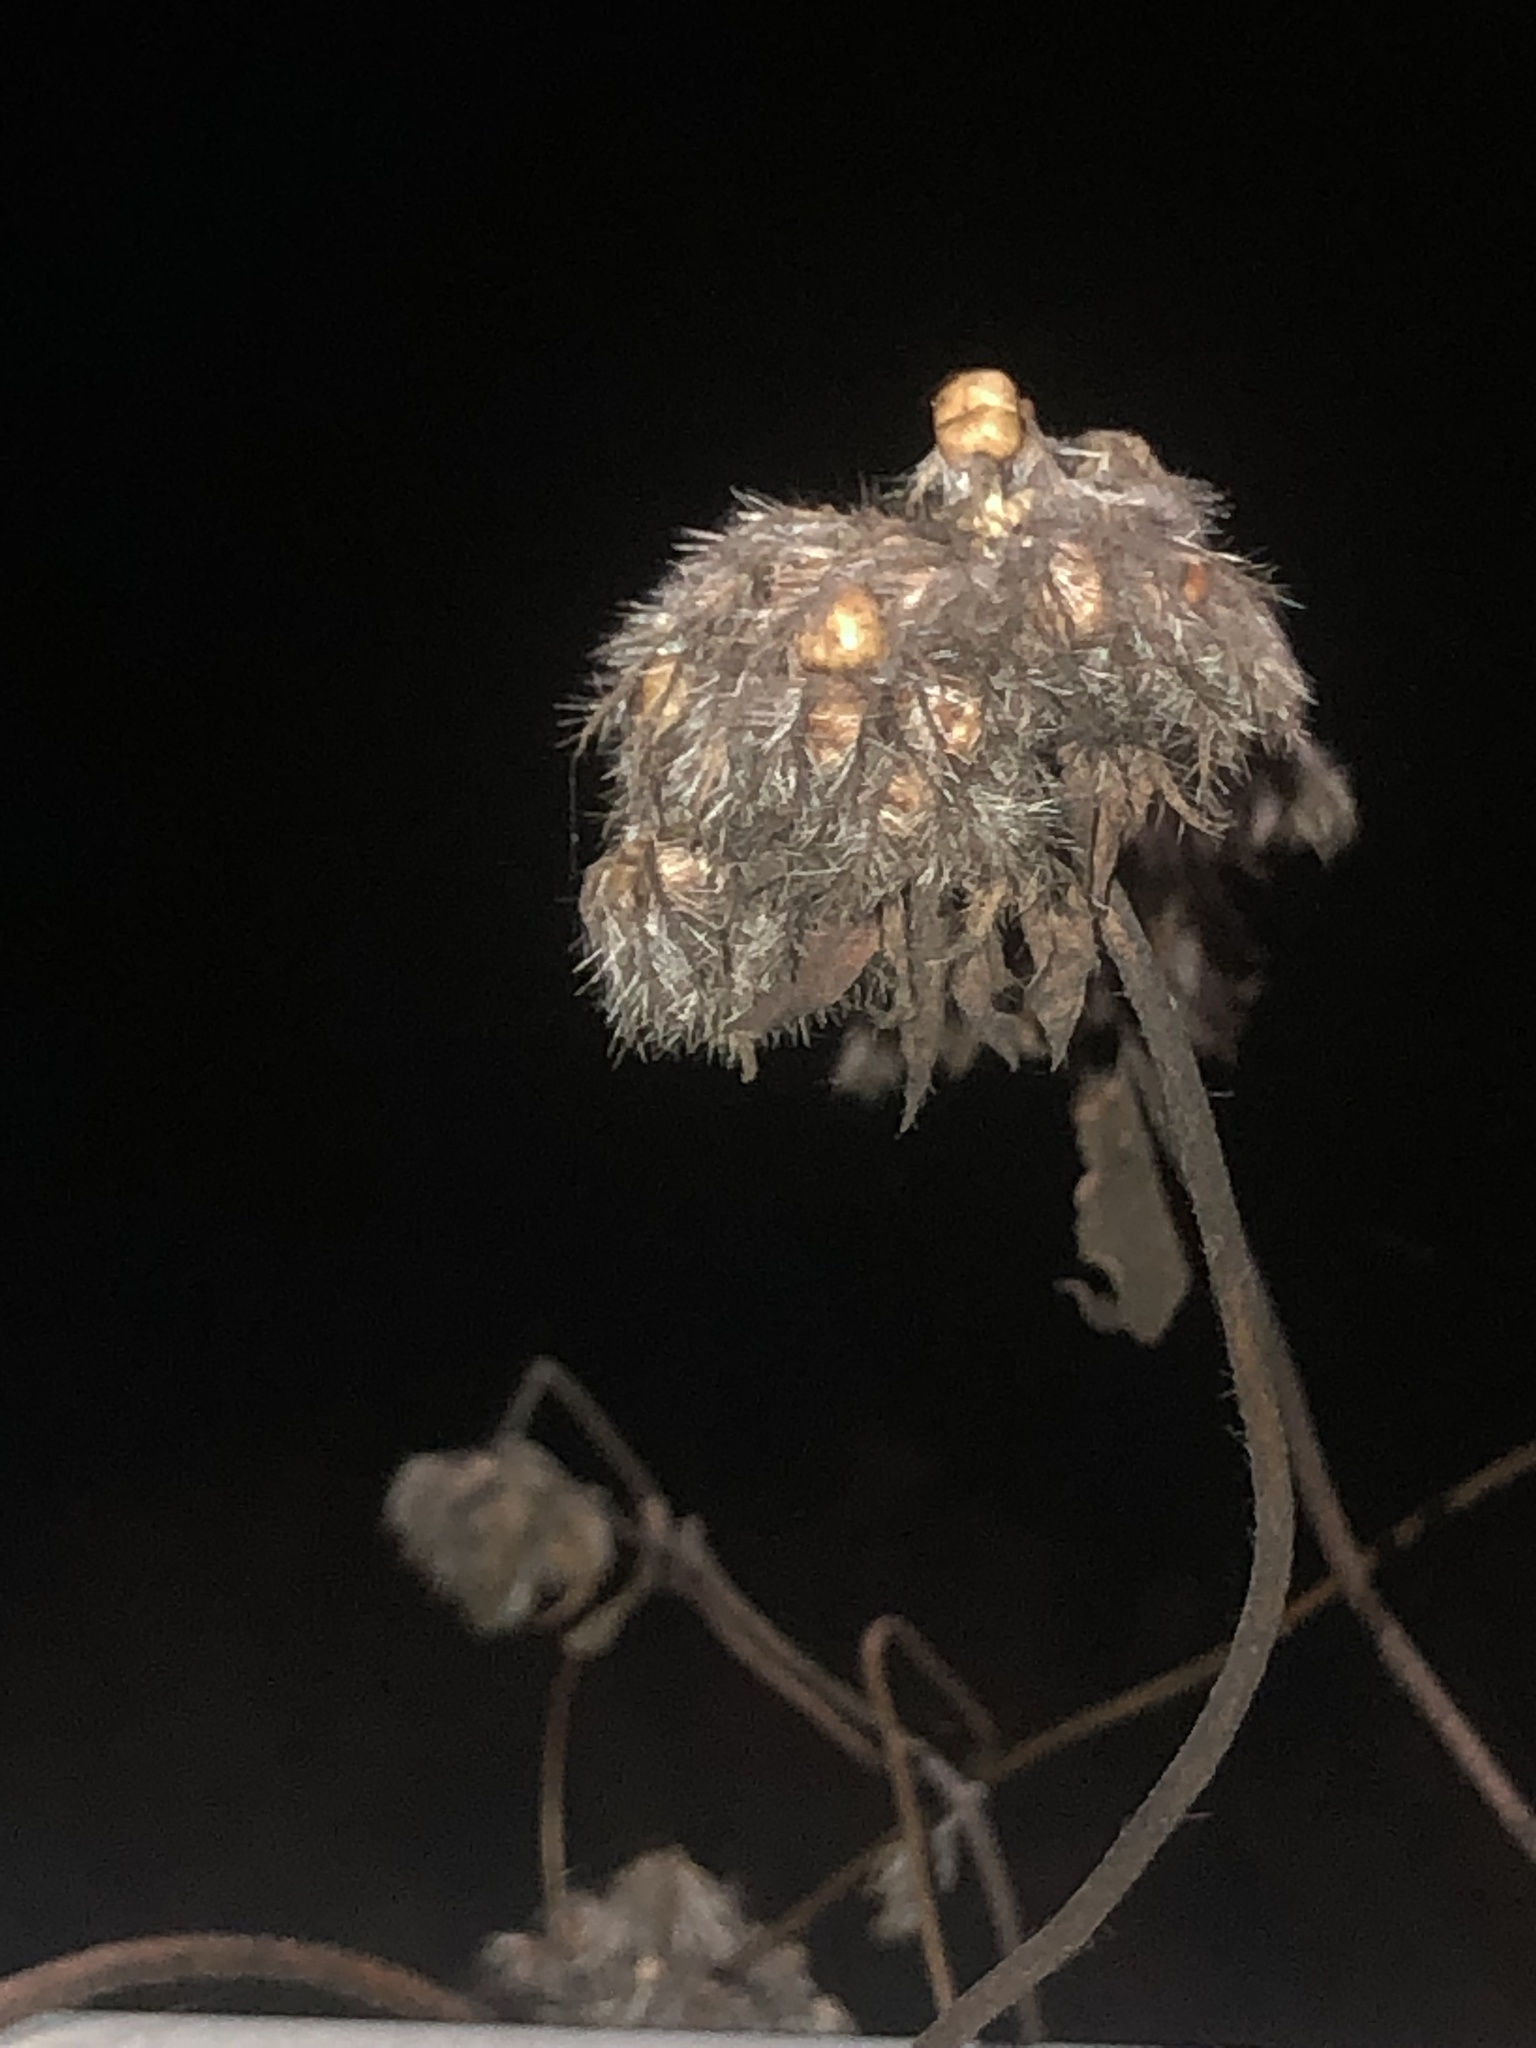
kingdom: Plantae
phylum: Tracheophyta
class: Magnoliopsida
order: Solanales
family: Convolvulaceae
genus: Jacquemontia
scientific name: Jacquemontia tamnifolia
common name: Hairy clustervine
